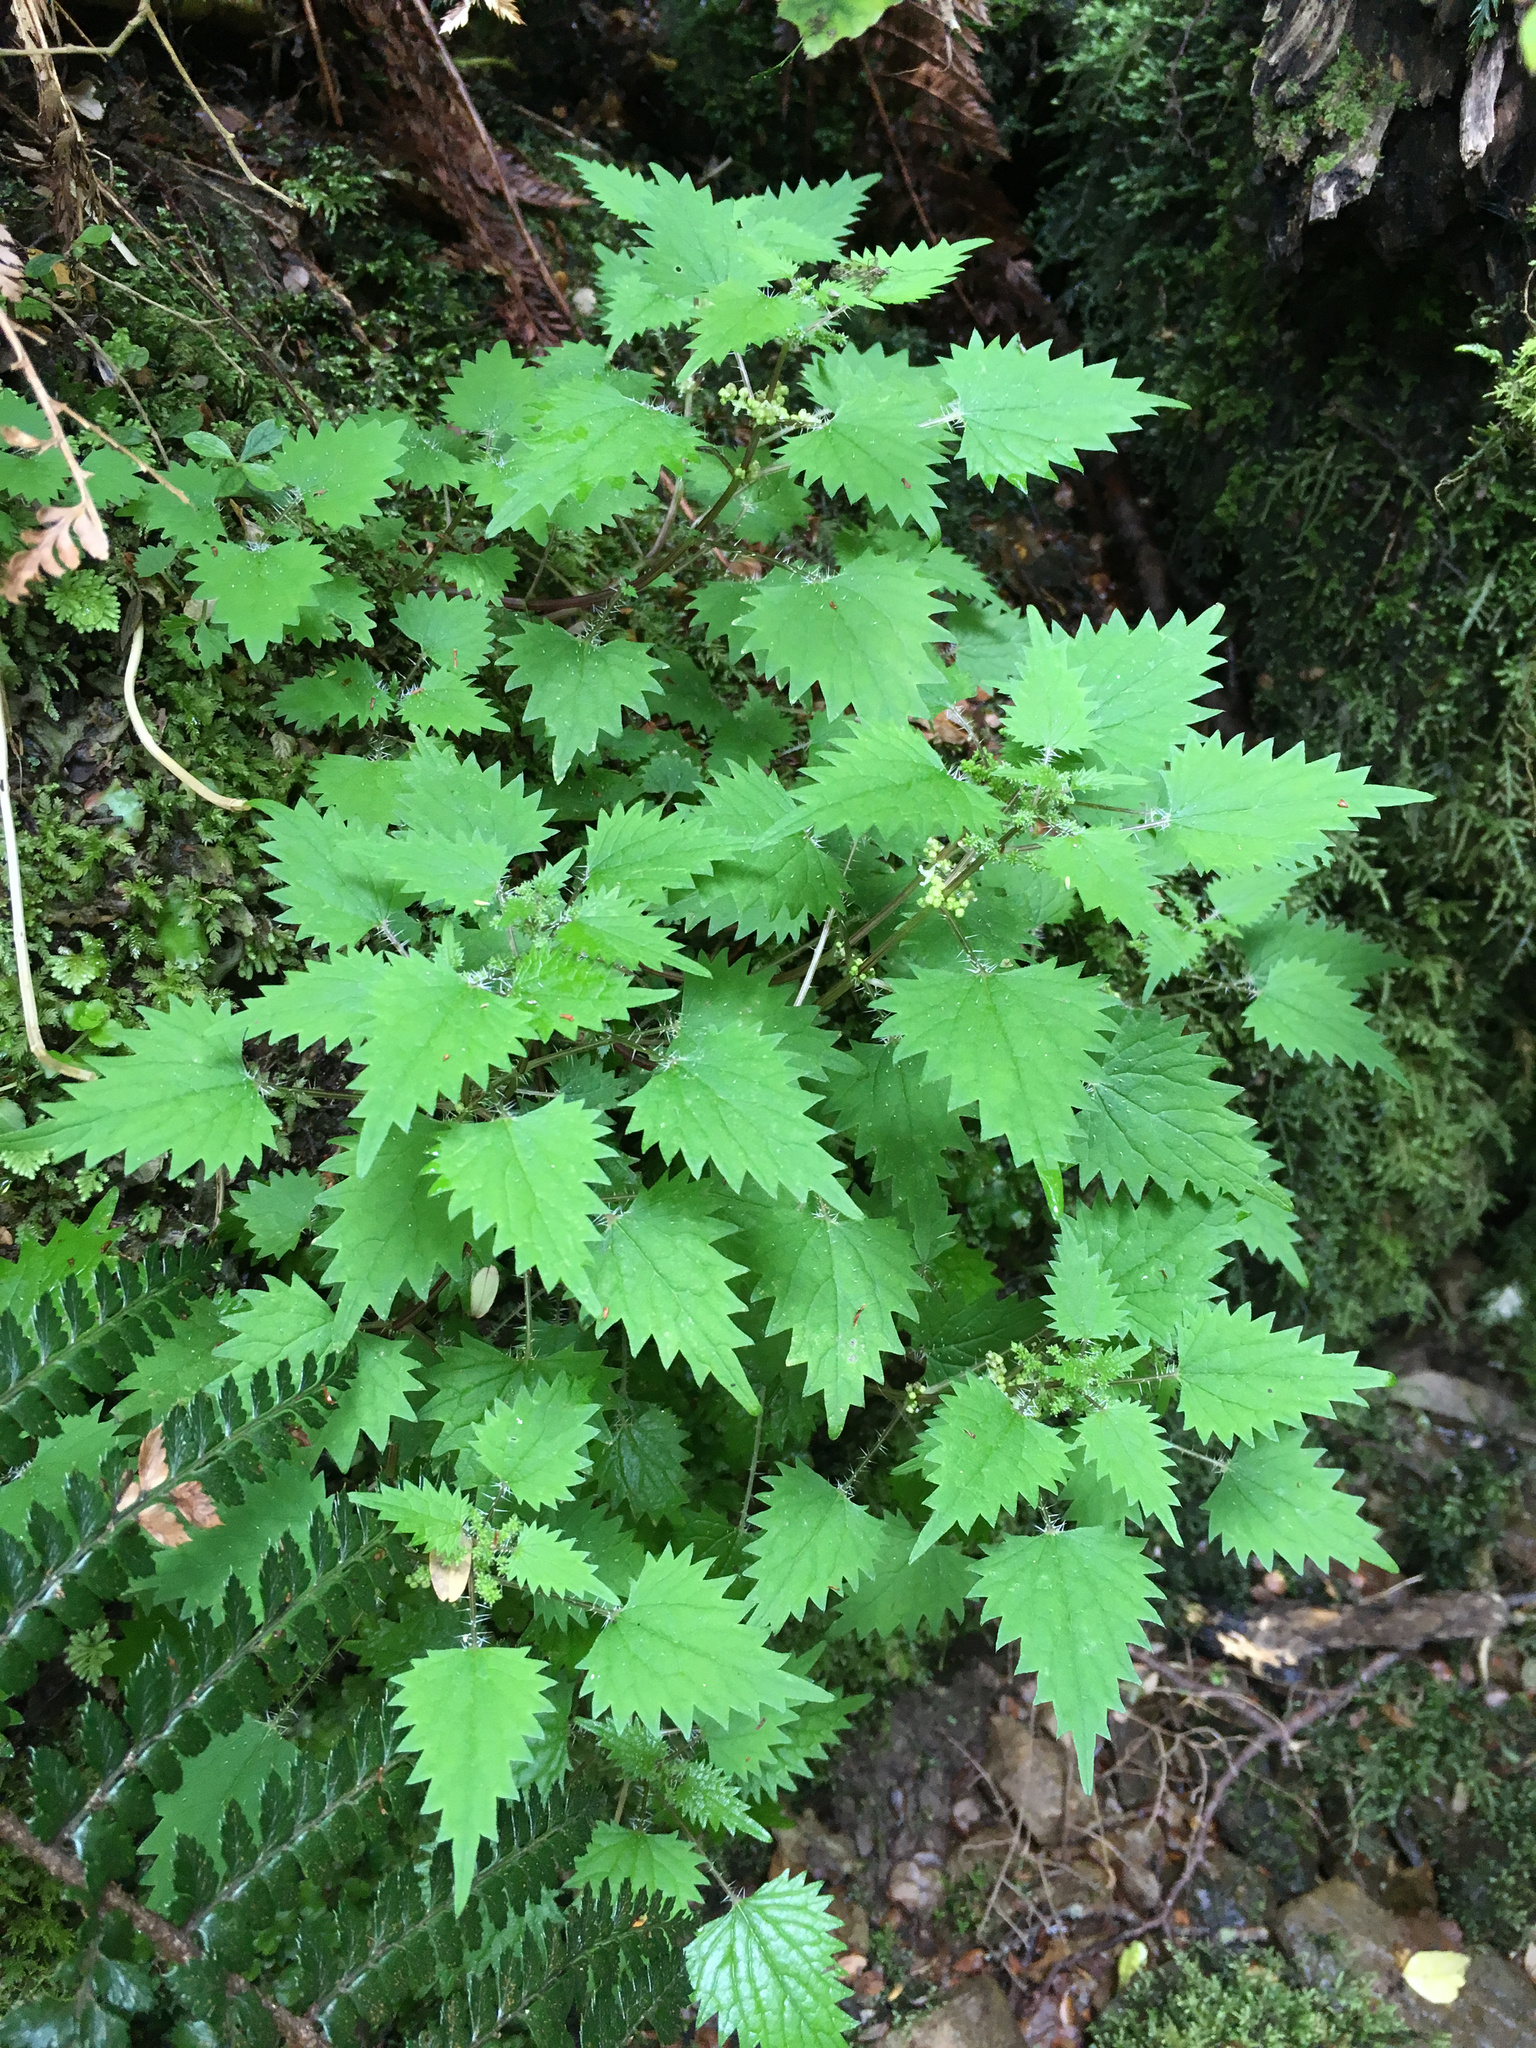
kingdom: Plantae
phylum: Tracheophyta
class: Magnoliopsida
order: Rosales
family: Urticaceae
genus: Urtica
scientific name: Urtica sykesii
